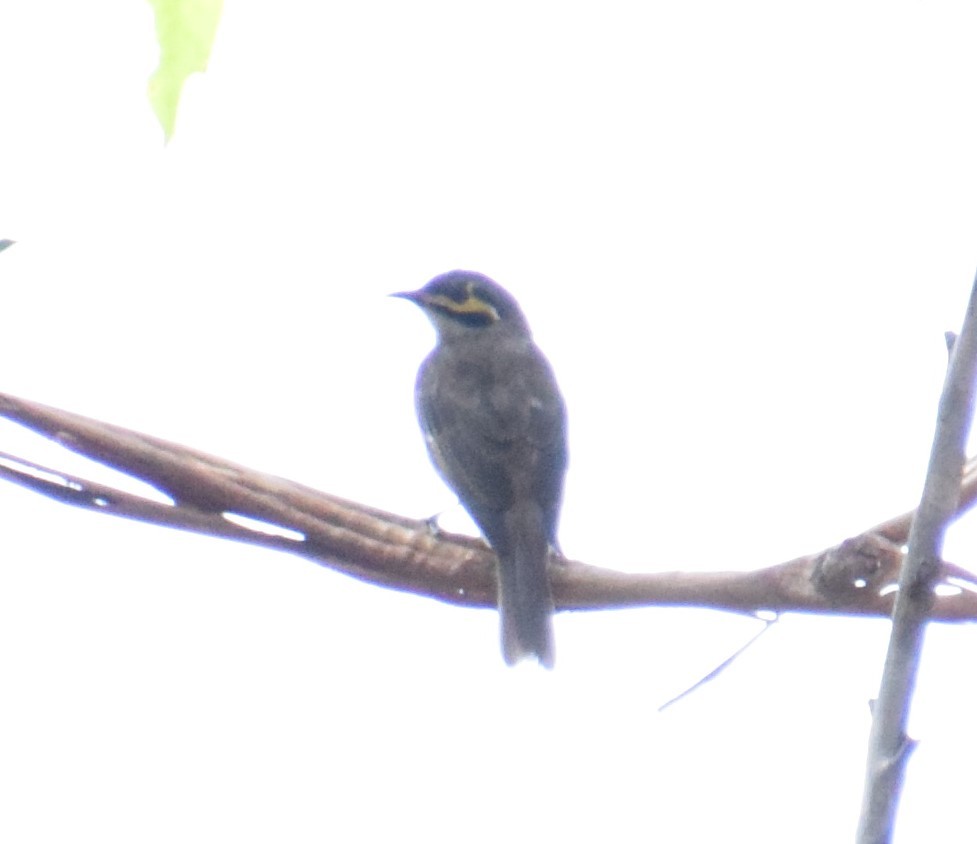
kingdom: Animalia
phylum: Chordata
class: Aves
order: Passeriformes
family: Meliphagidae
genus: Caligavis
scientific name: Caligavis chrysops
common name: Yellow-faced honeyeater
